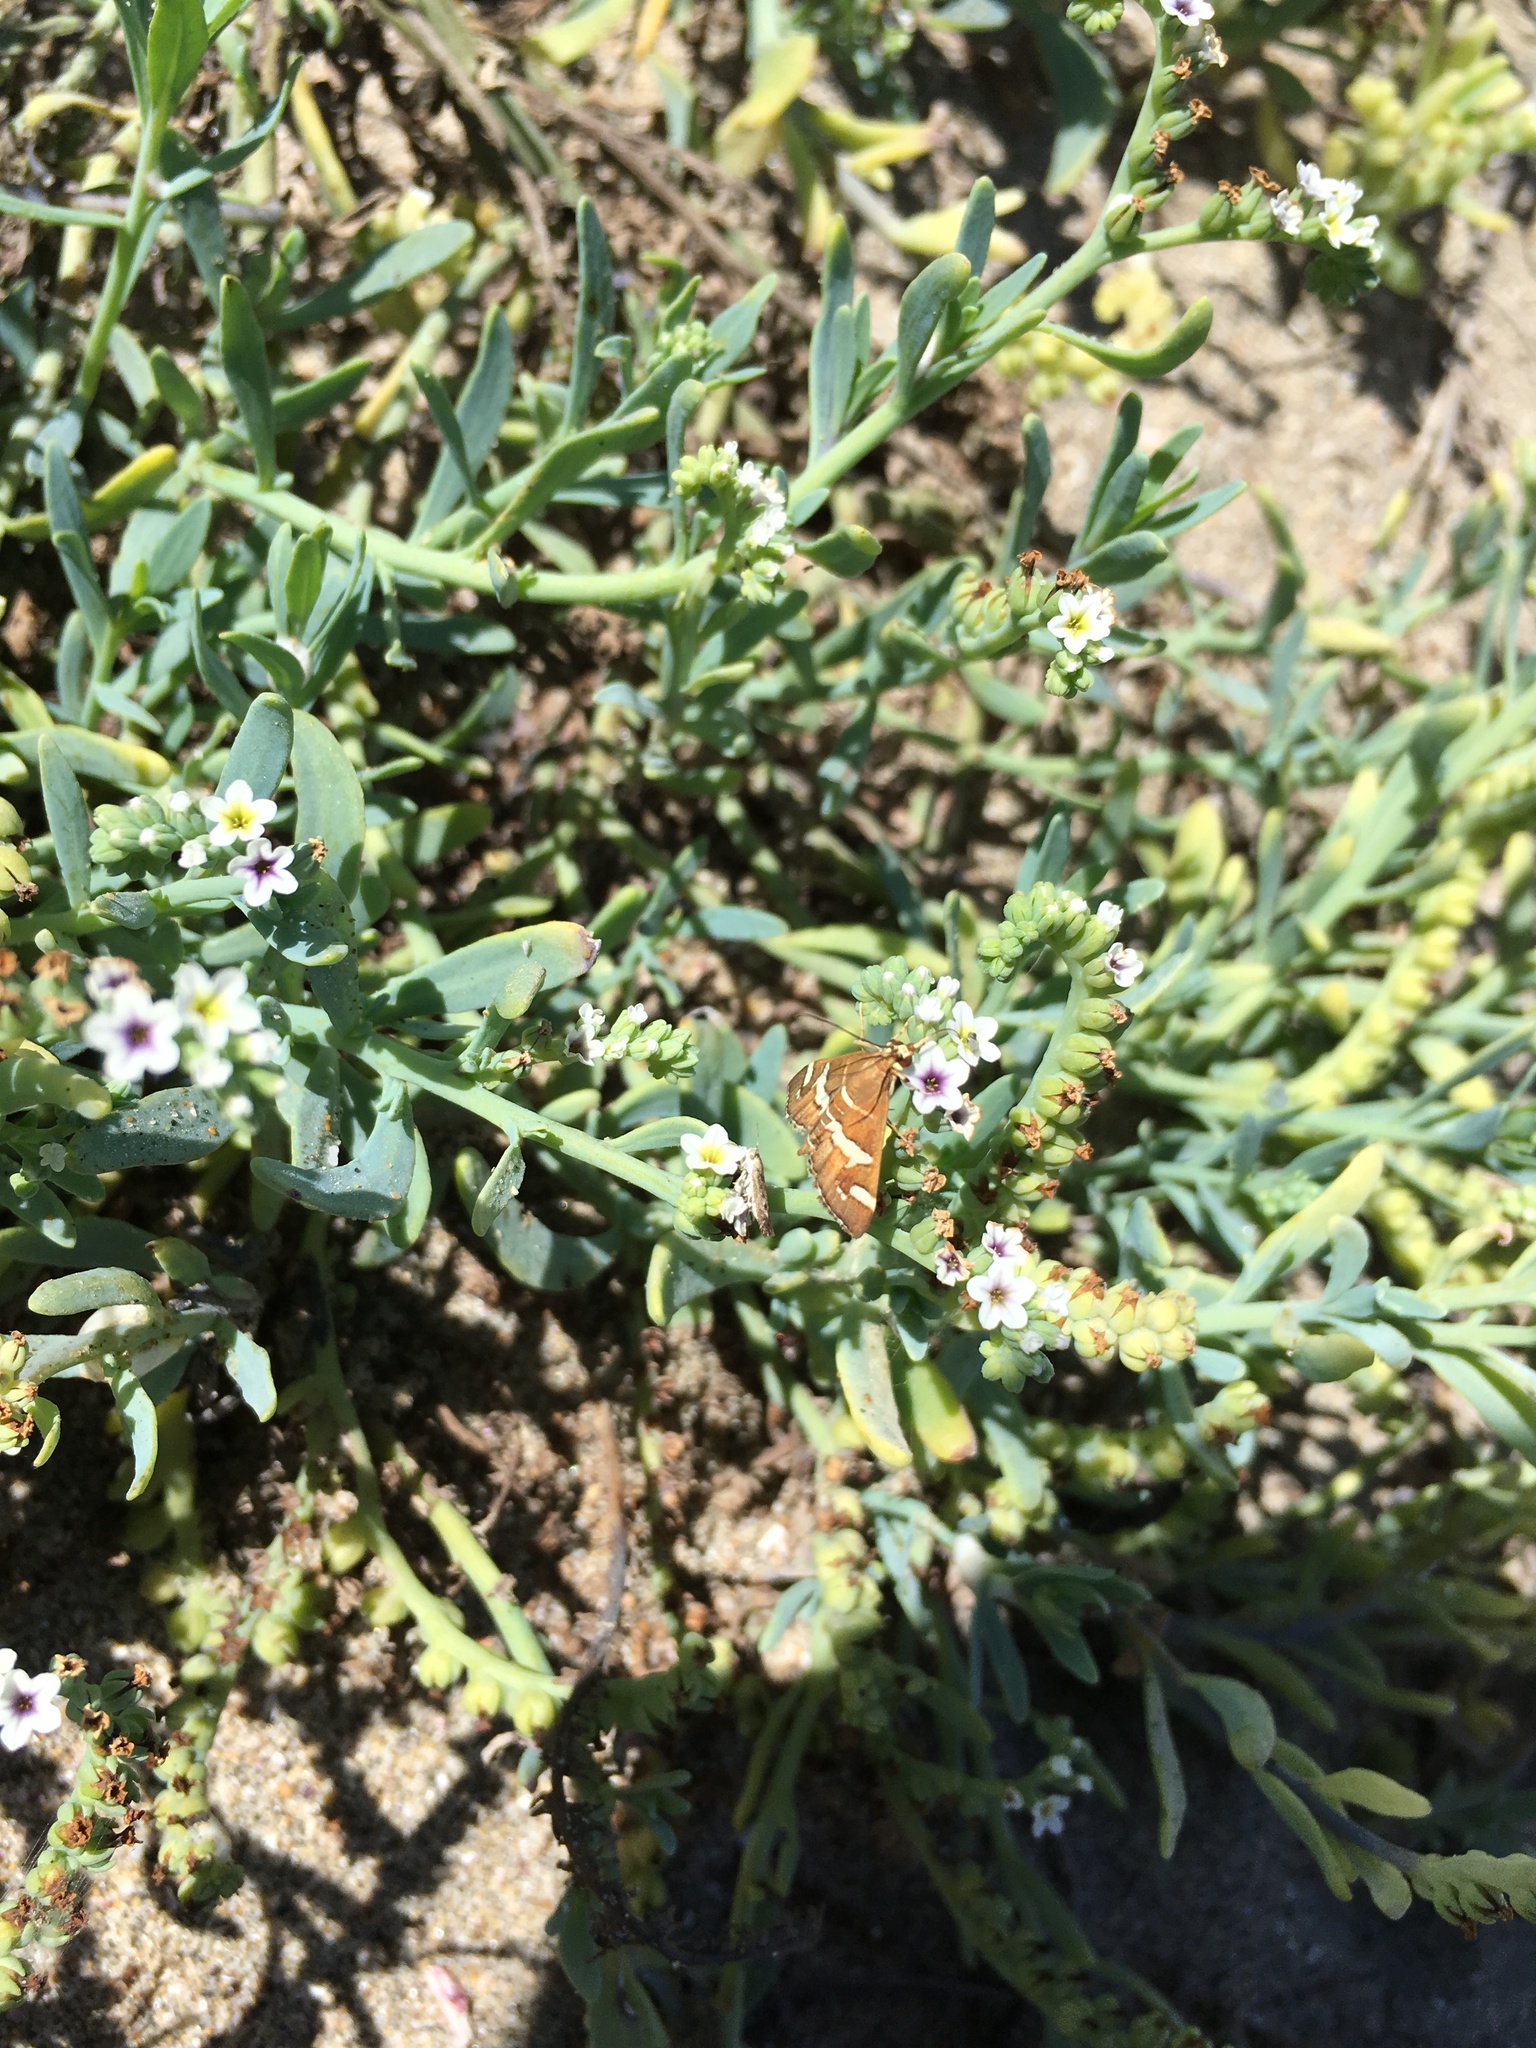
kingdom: Animalia
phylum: Arthropoda
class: Insecta
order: Lepidoptera
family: Crambidae
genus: Spoladea
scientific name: Spoladea recurvalis
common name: Beet webworm moth
